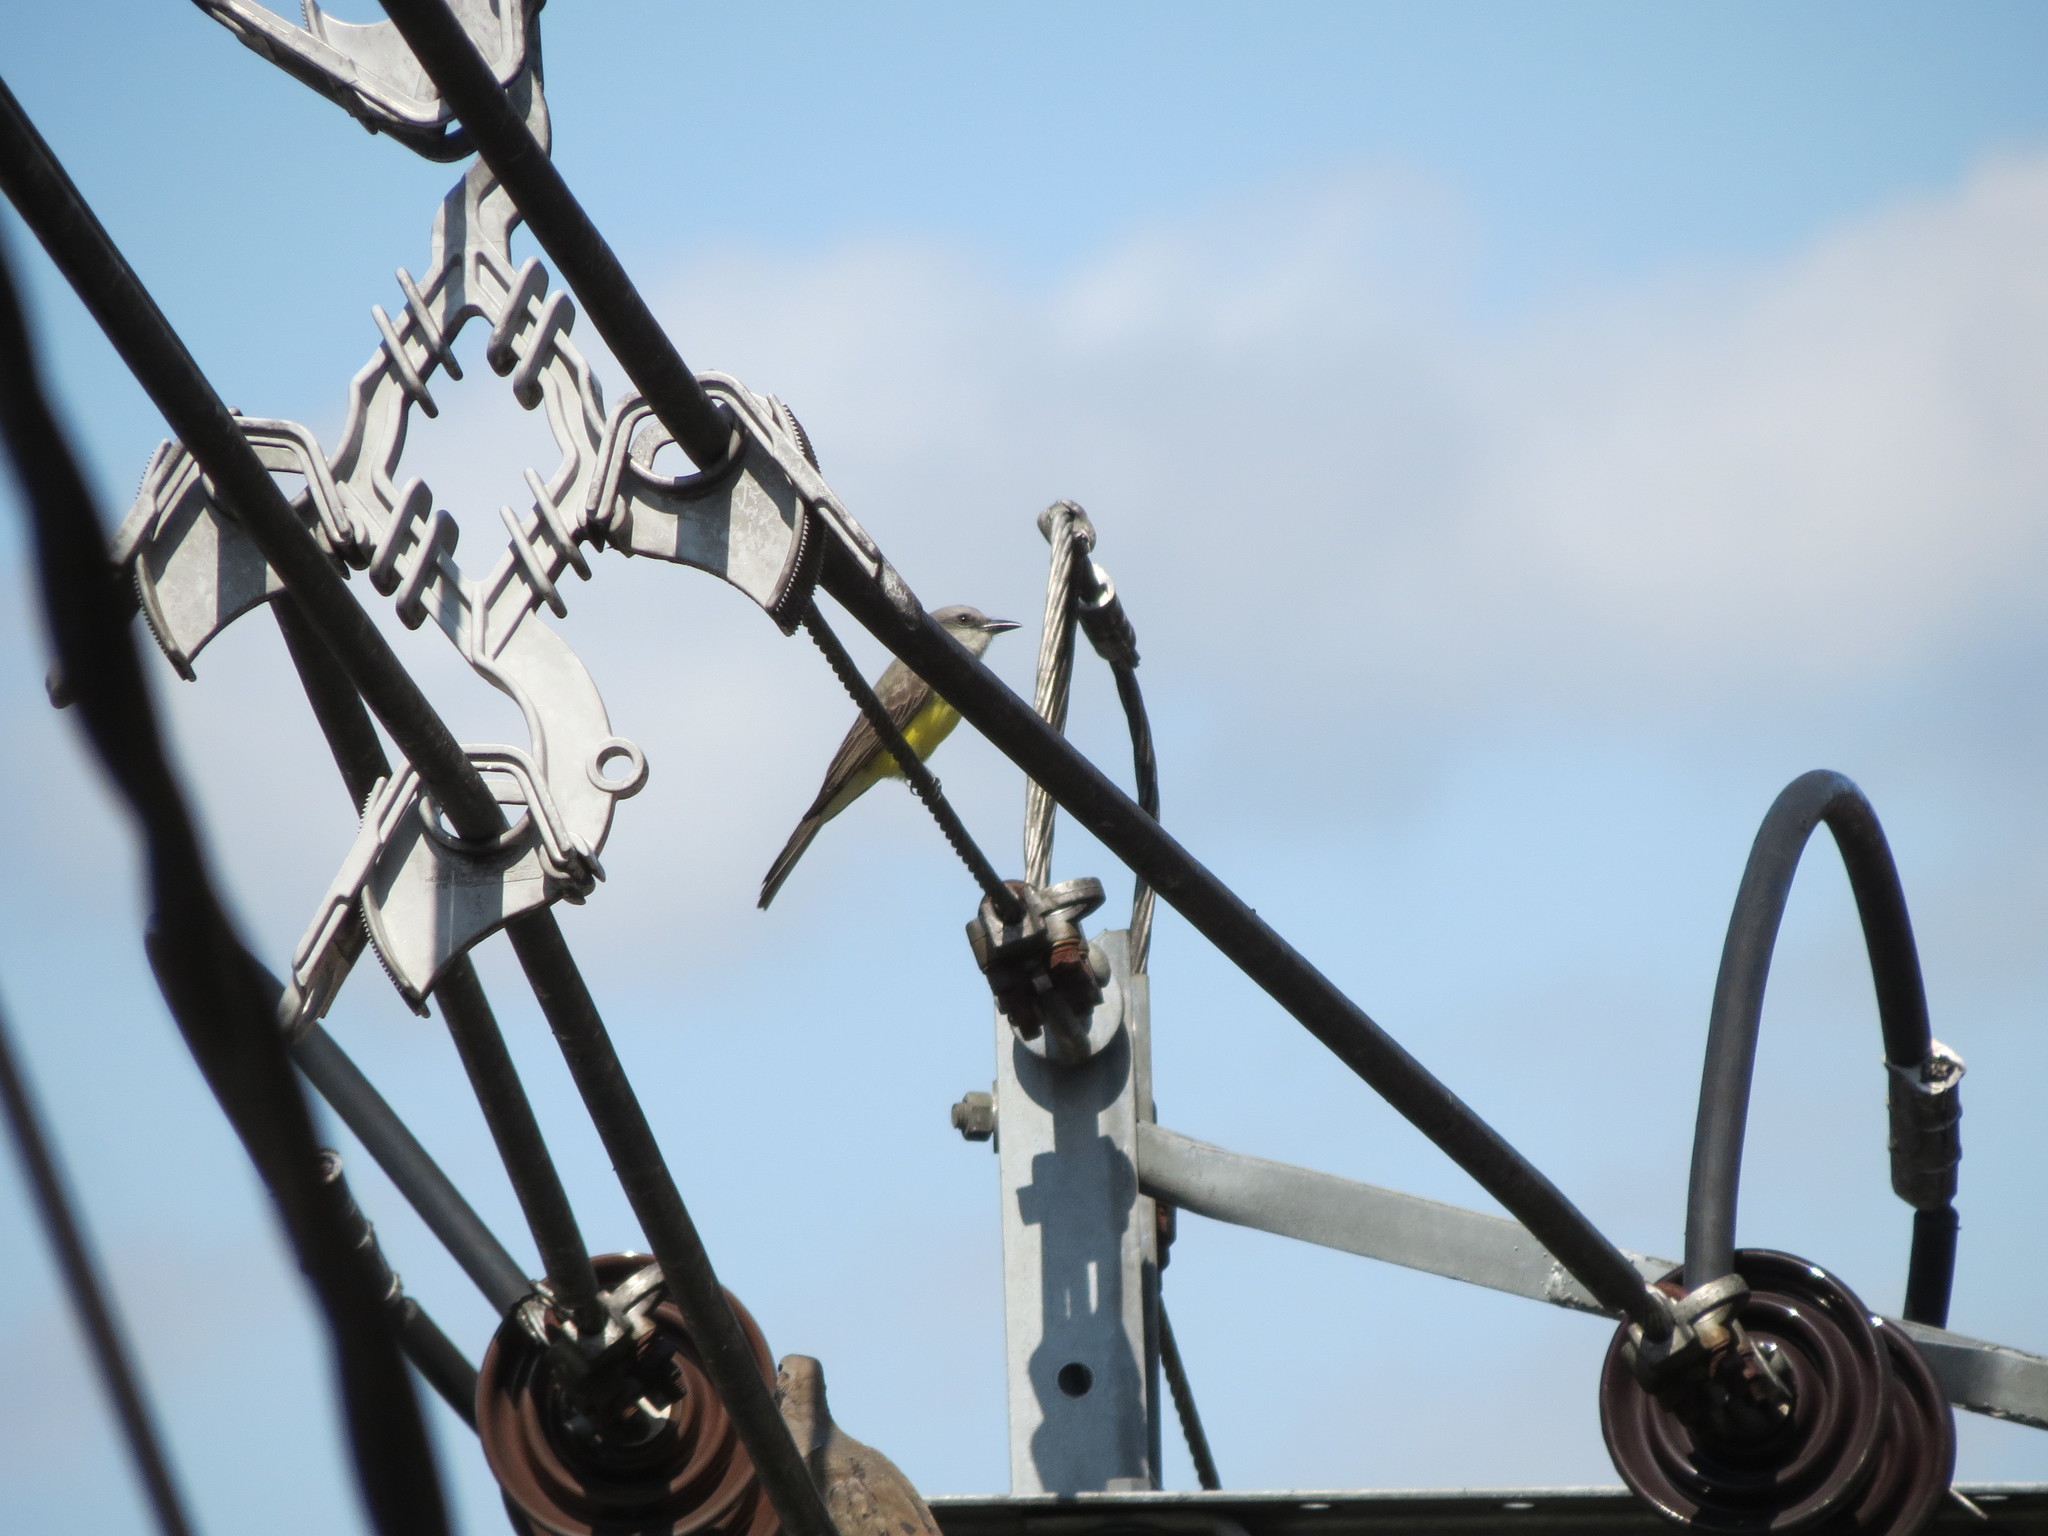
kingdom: Animalia
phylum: Chordata
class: Aves
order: Passeriformes
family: Tyrannidae
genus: Tyrannus
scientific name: Tyrannus melancholicus
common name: Tropical kingbird
